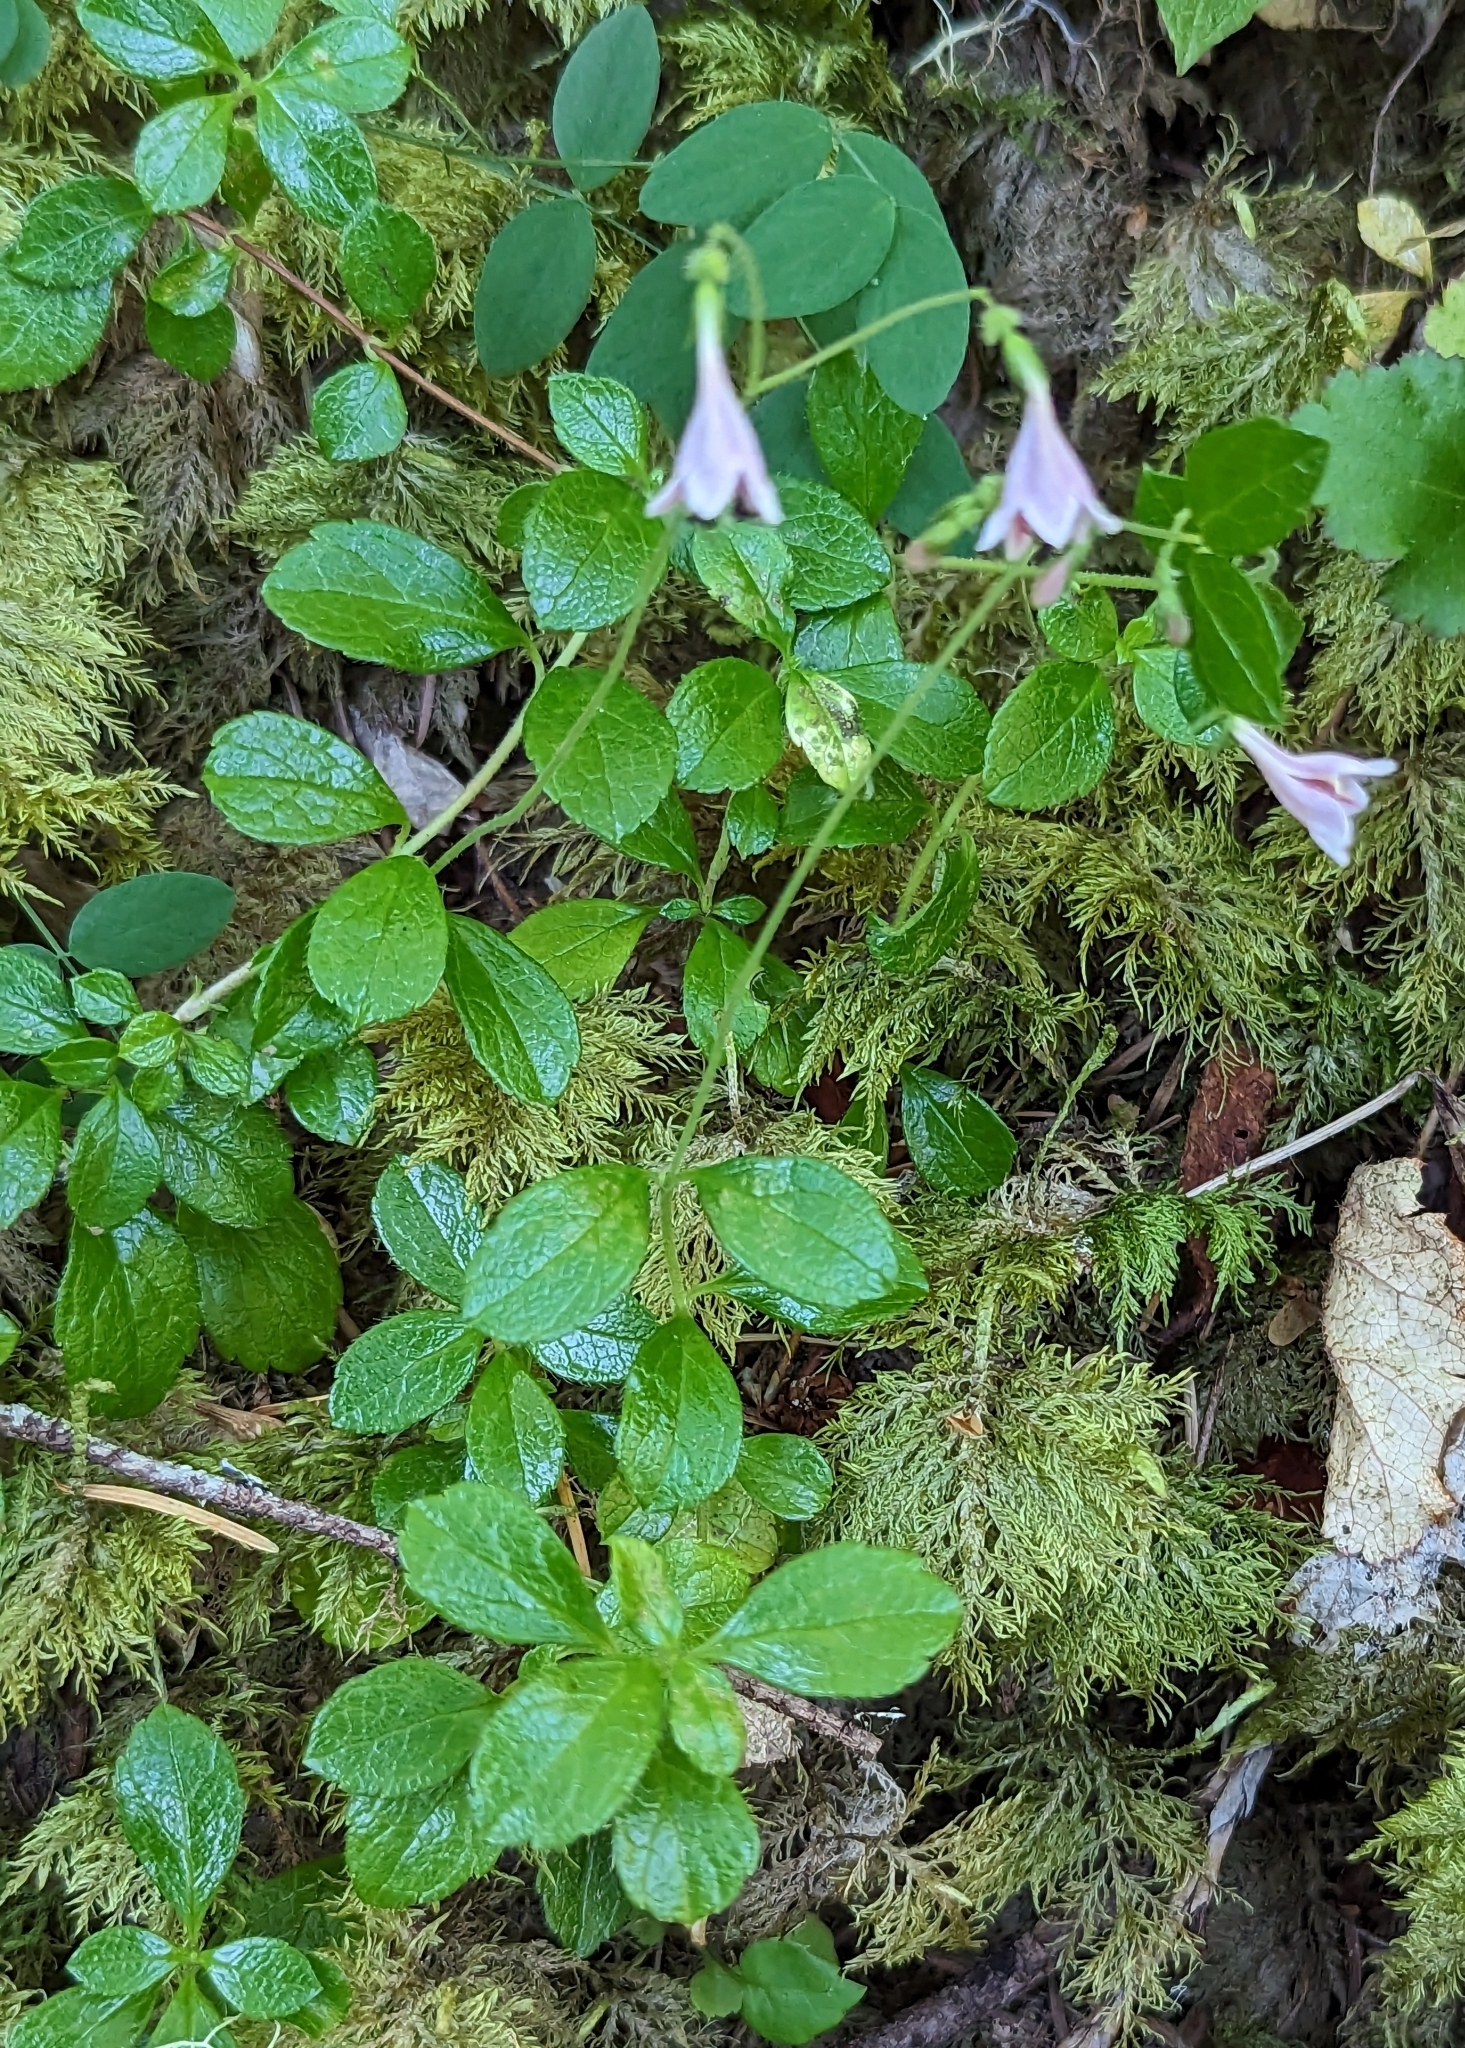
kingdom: Plantae
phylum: Tracheophyta
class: Magnoliopsida
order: Dipsacales
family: Caprifoliaceae
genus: Linnaea
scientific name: Linnaea borealis
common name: Twinflower
